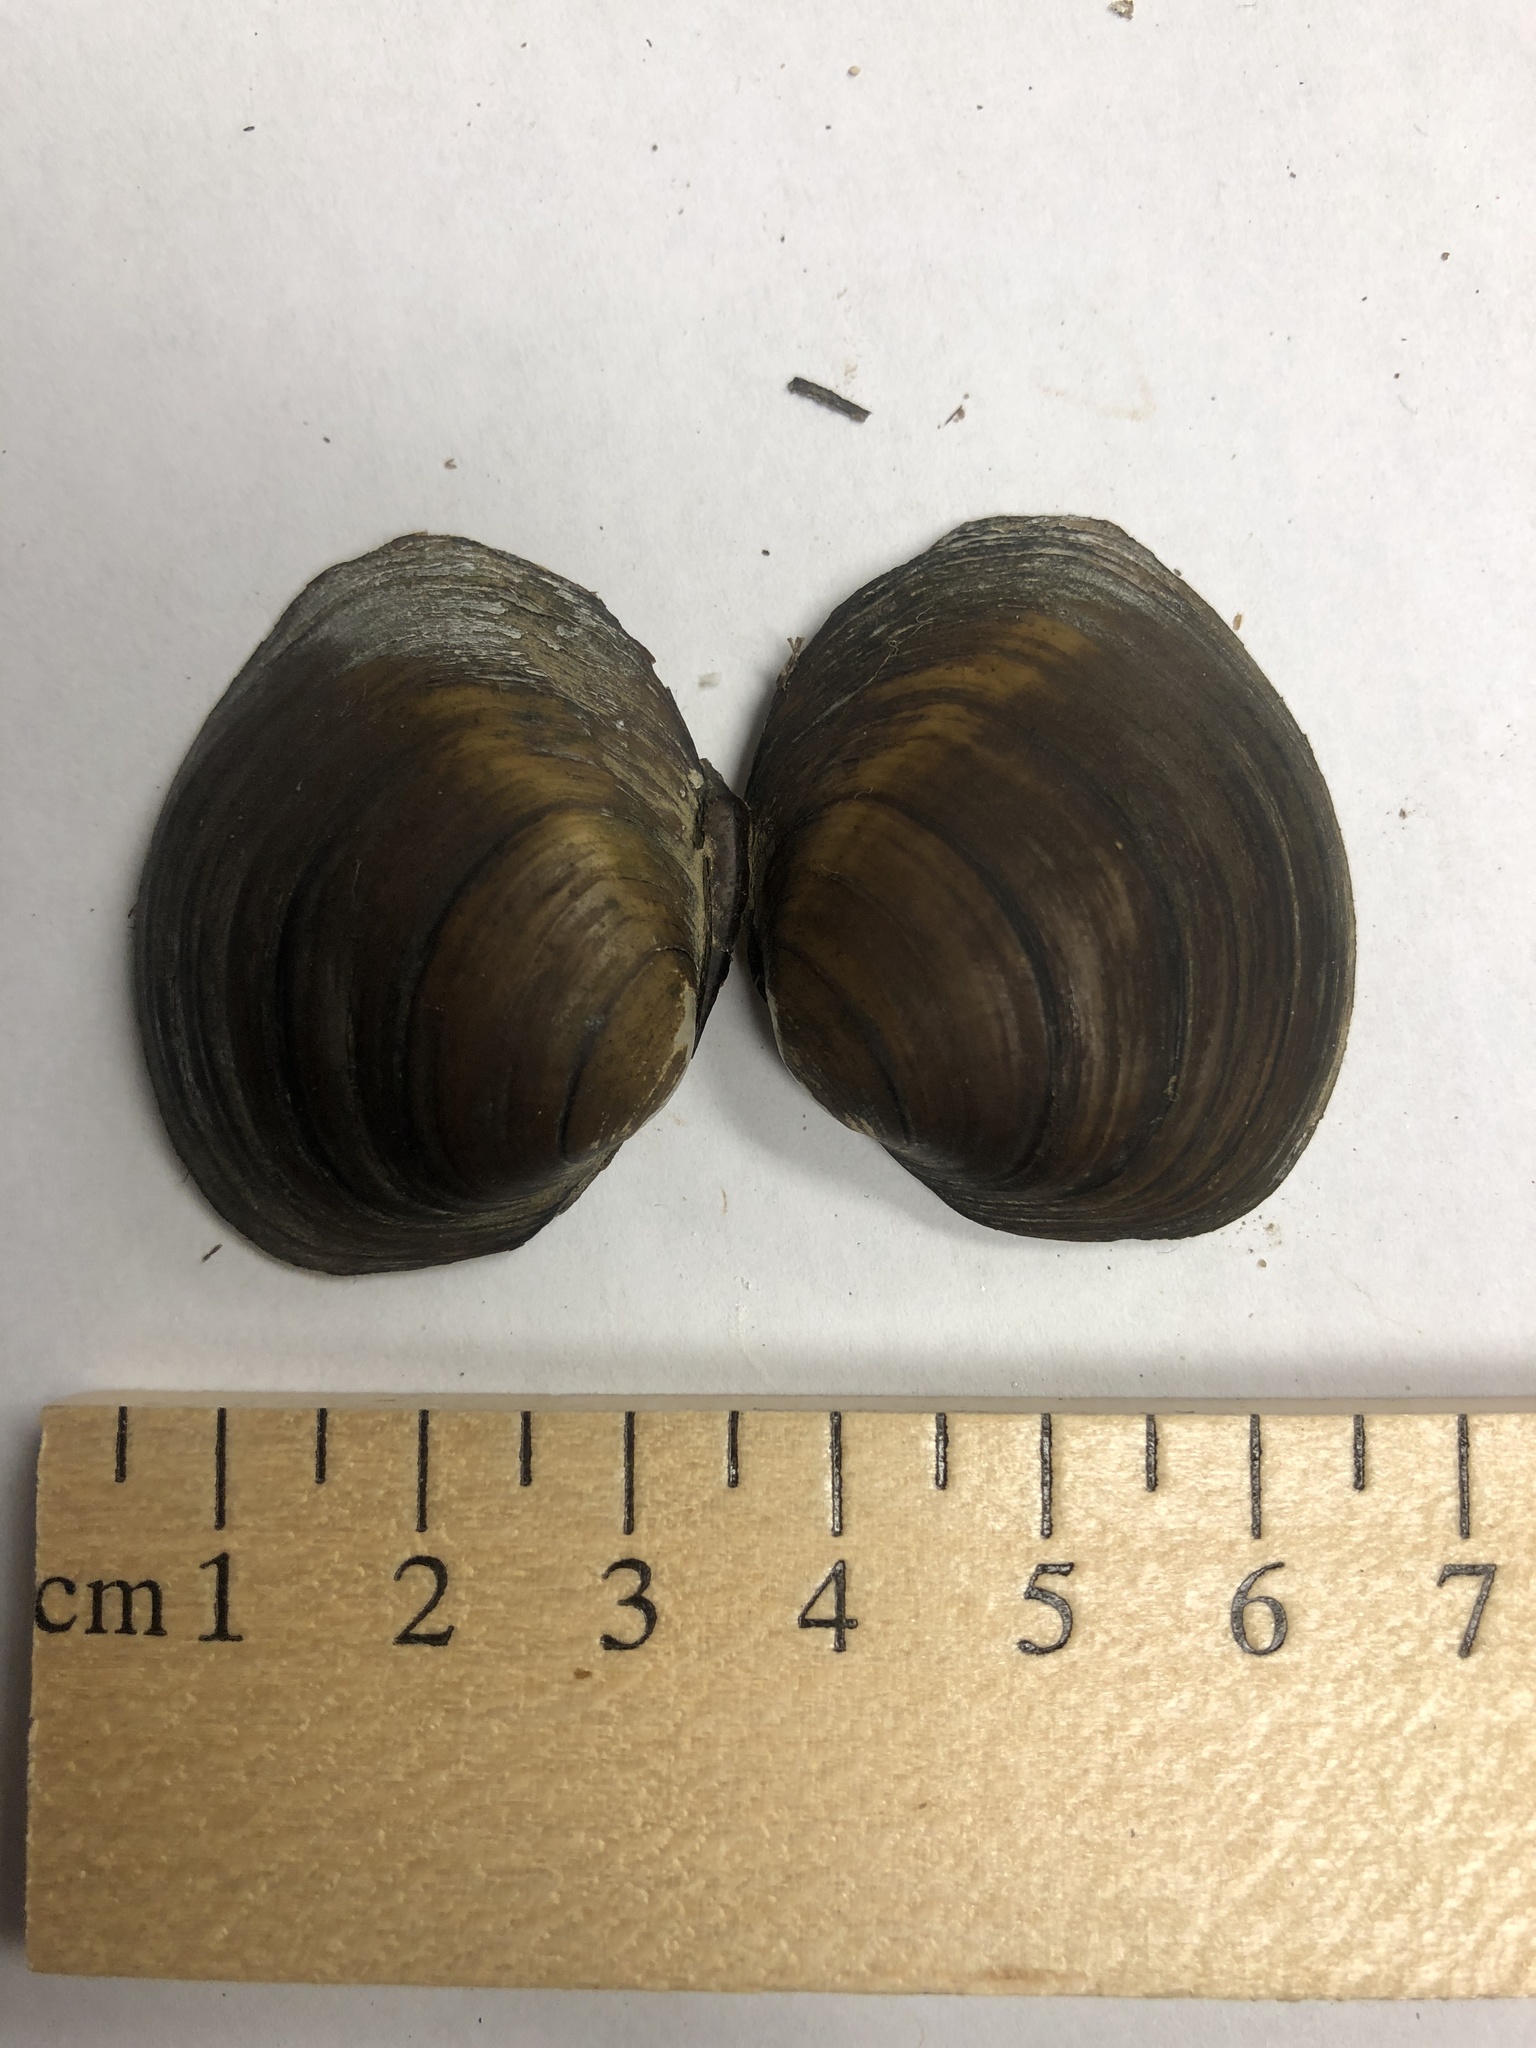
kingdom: Animalia
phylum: Mollusca
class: Bivalvia
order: Unionida
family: Unionidae
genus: Obovaria
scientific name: Obovaria subrotunda
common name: Round hickorynut
